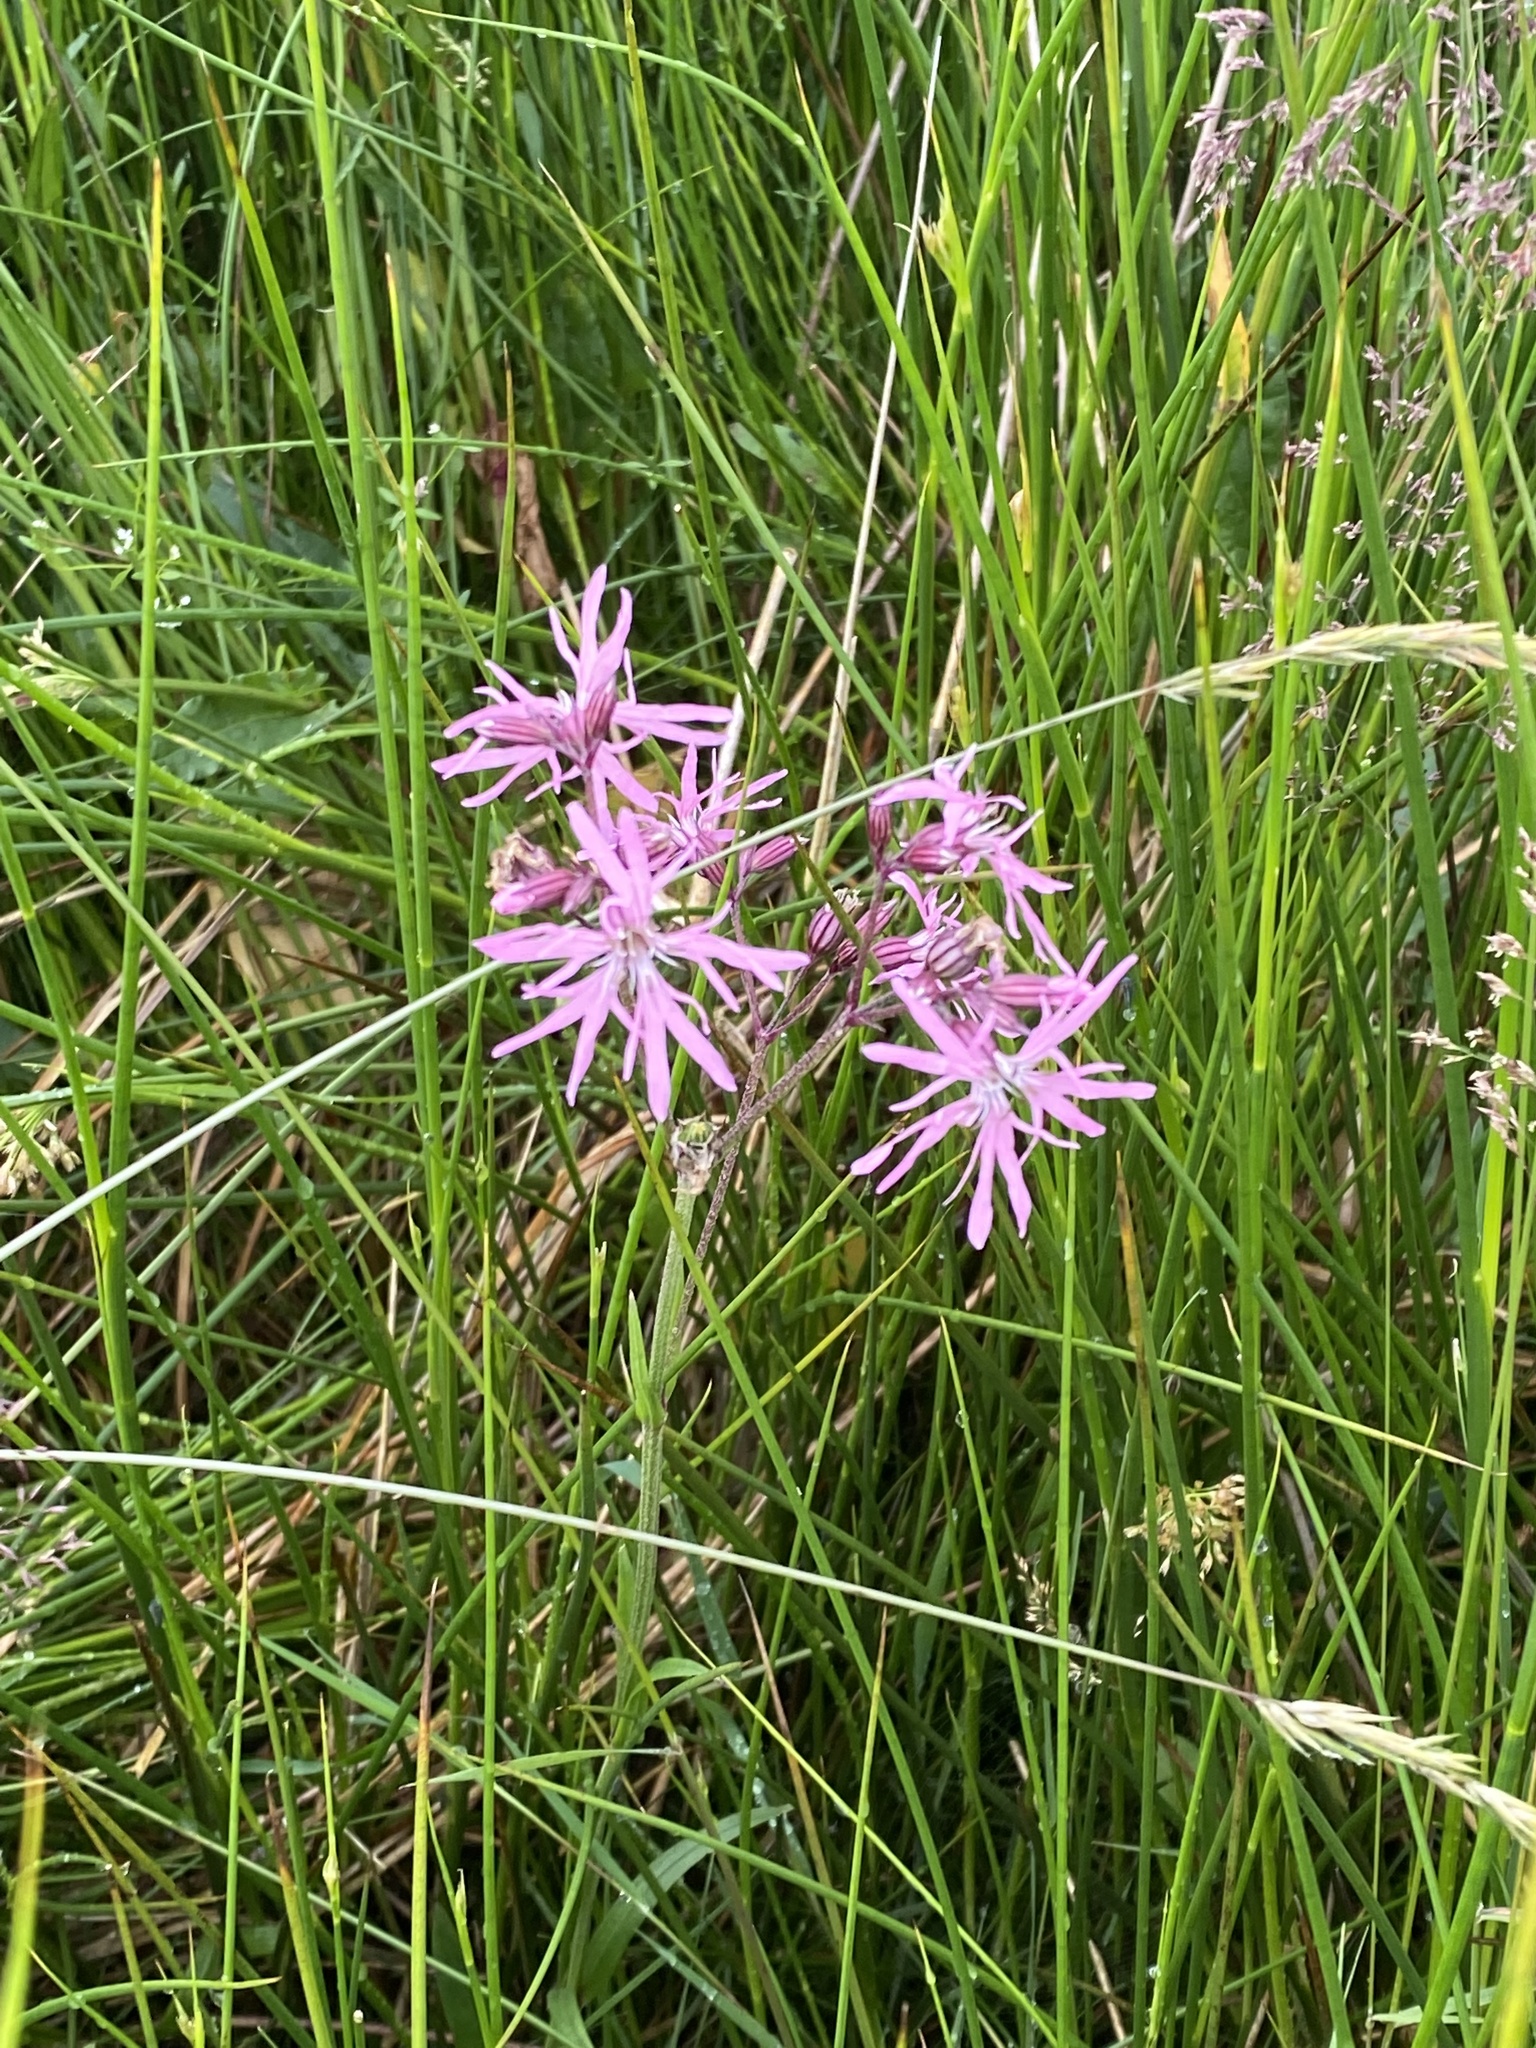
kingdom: Plantae
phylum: Tracheophyta
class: Magnoliopsida
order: Caryophyllales
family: Caryophyllaceae
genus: Silene
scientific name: Silene flos-cuculi
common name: Ragged-robin
